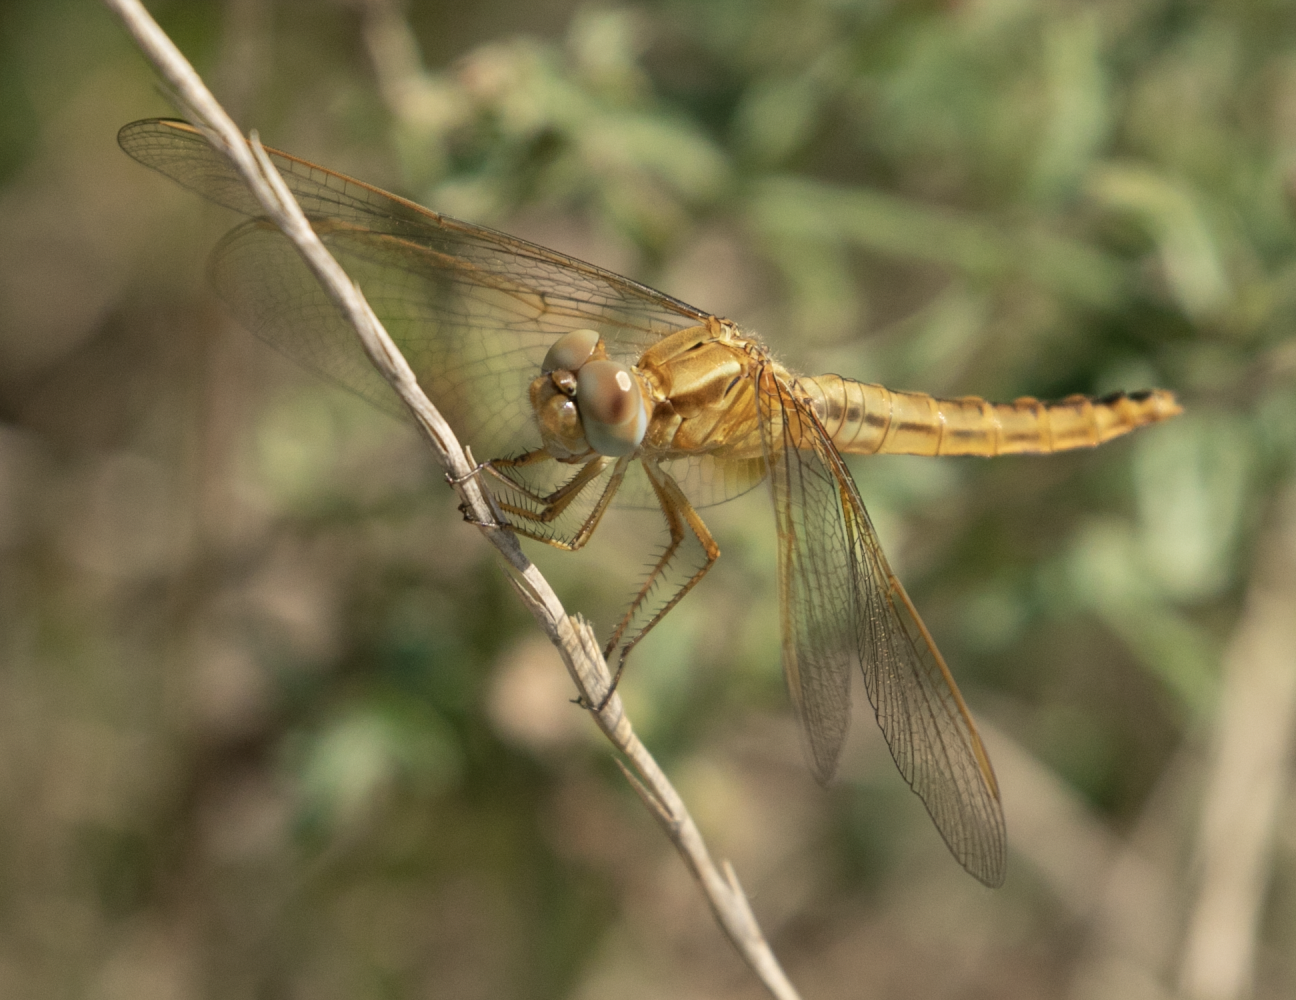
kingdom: Animalia
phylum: Arthropoda
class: Insecta
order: Odonata
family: Libellulidae
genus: Crocothemis
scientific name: Crocothemis erythraea
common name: Scarlet dragonfly
